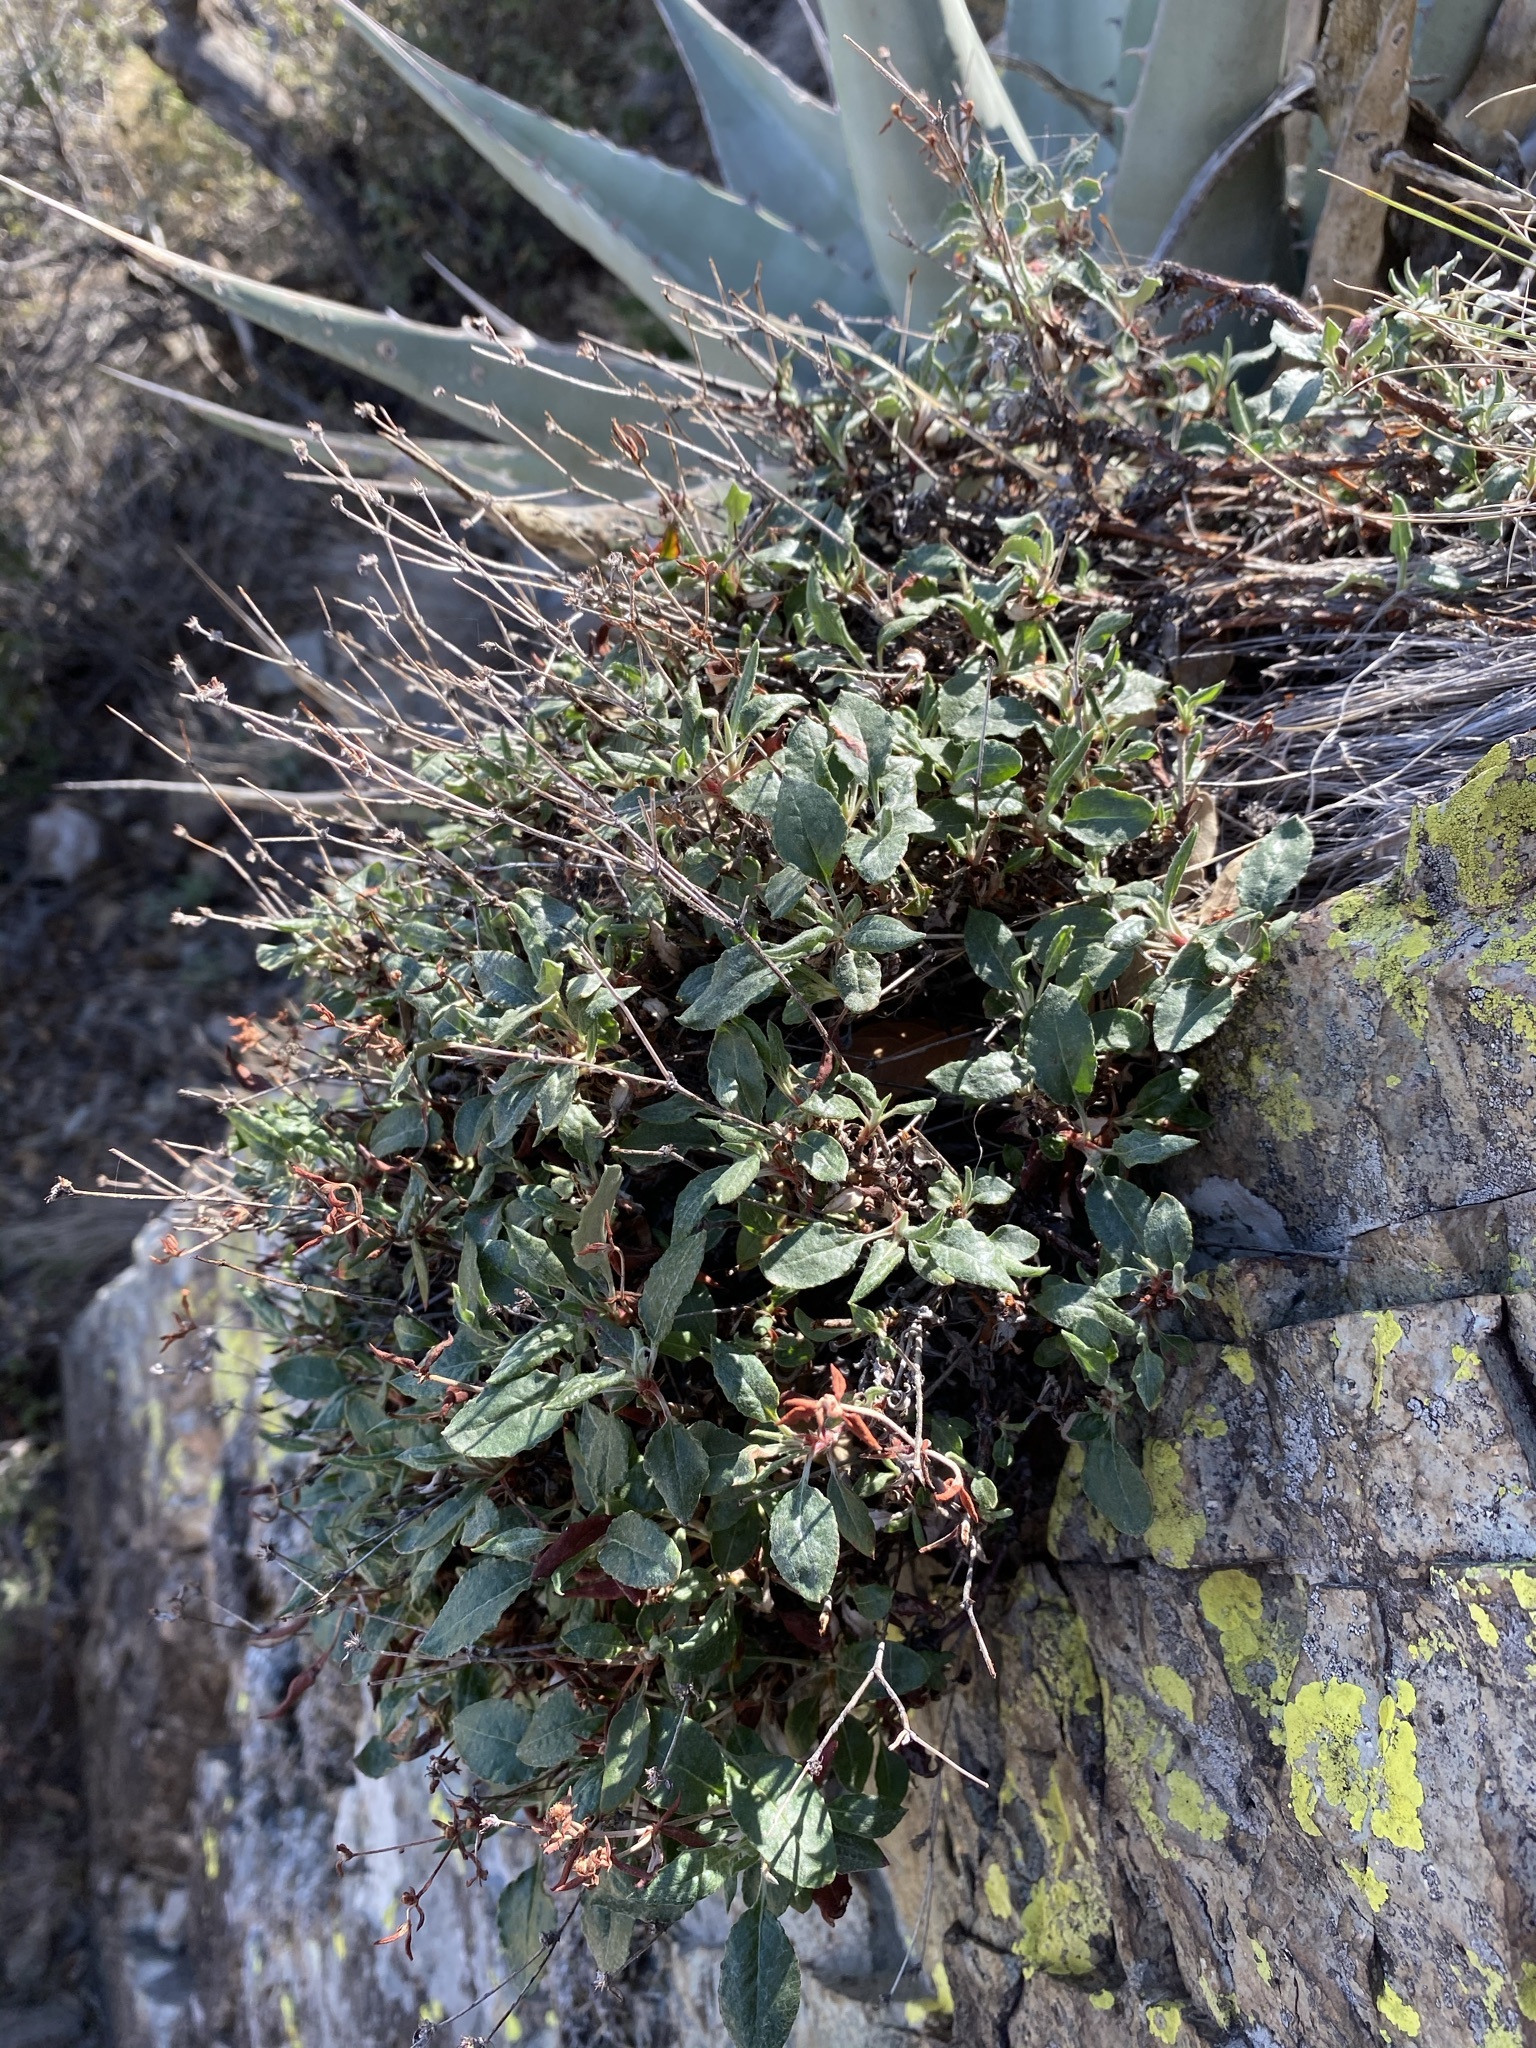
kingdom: Plantae
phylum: Tracheophyta
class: Magnoliopsida
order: Caryophyllales
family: Polygonaceae
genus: Eriogonum
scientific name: Eriogonum jamesii
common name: Antelope-sage
